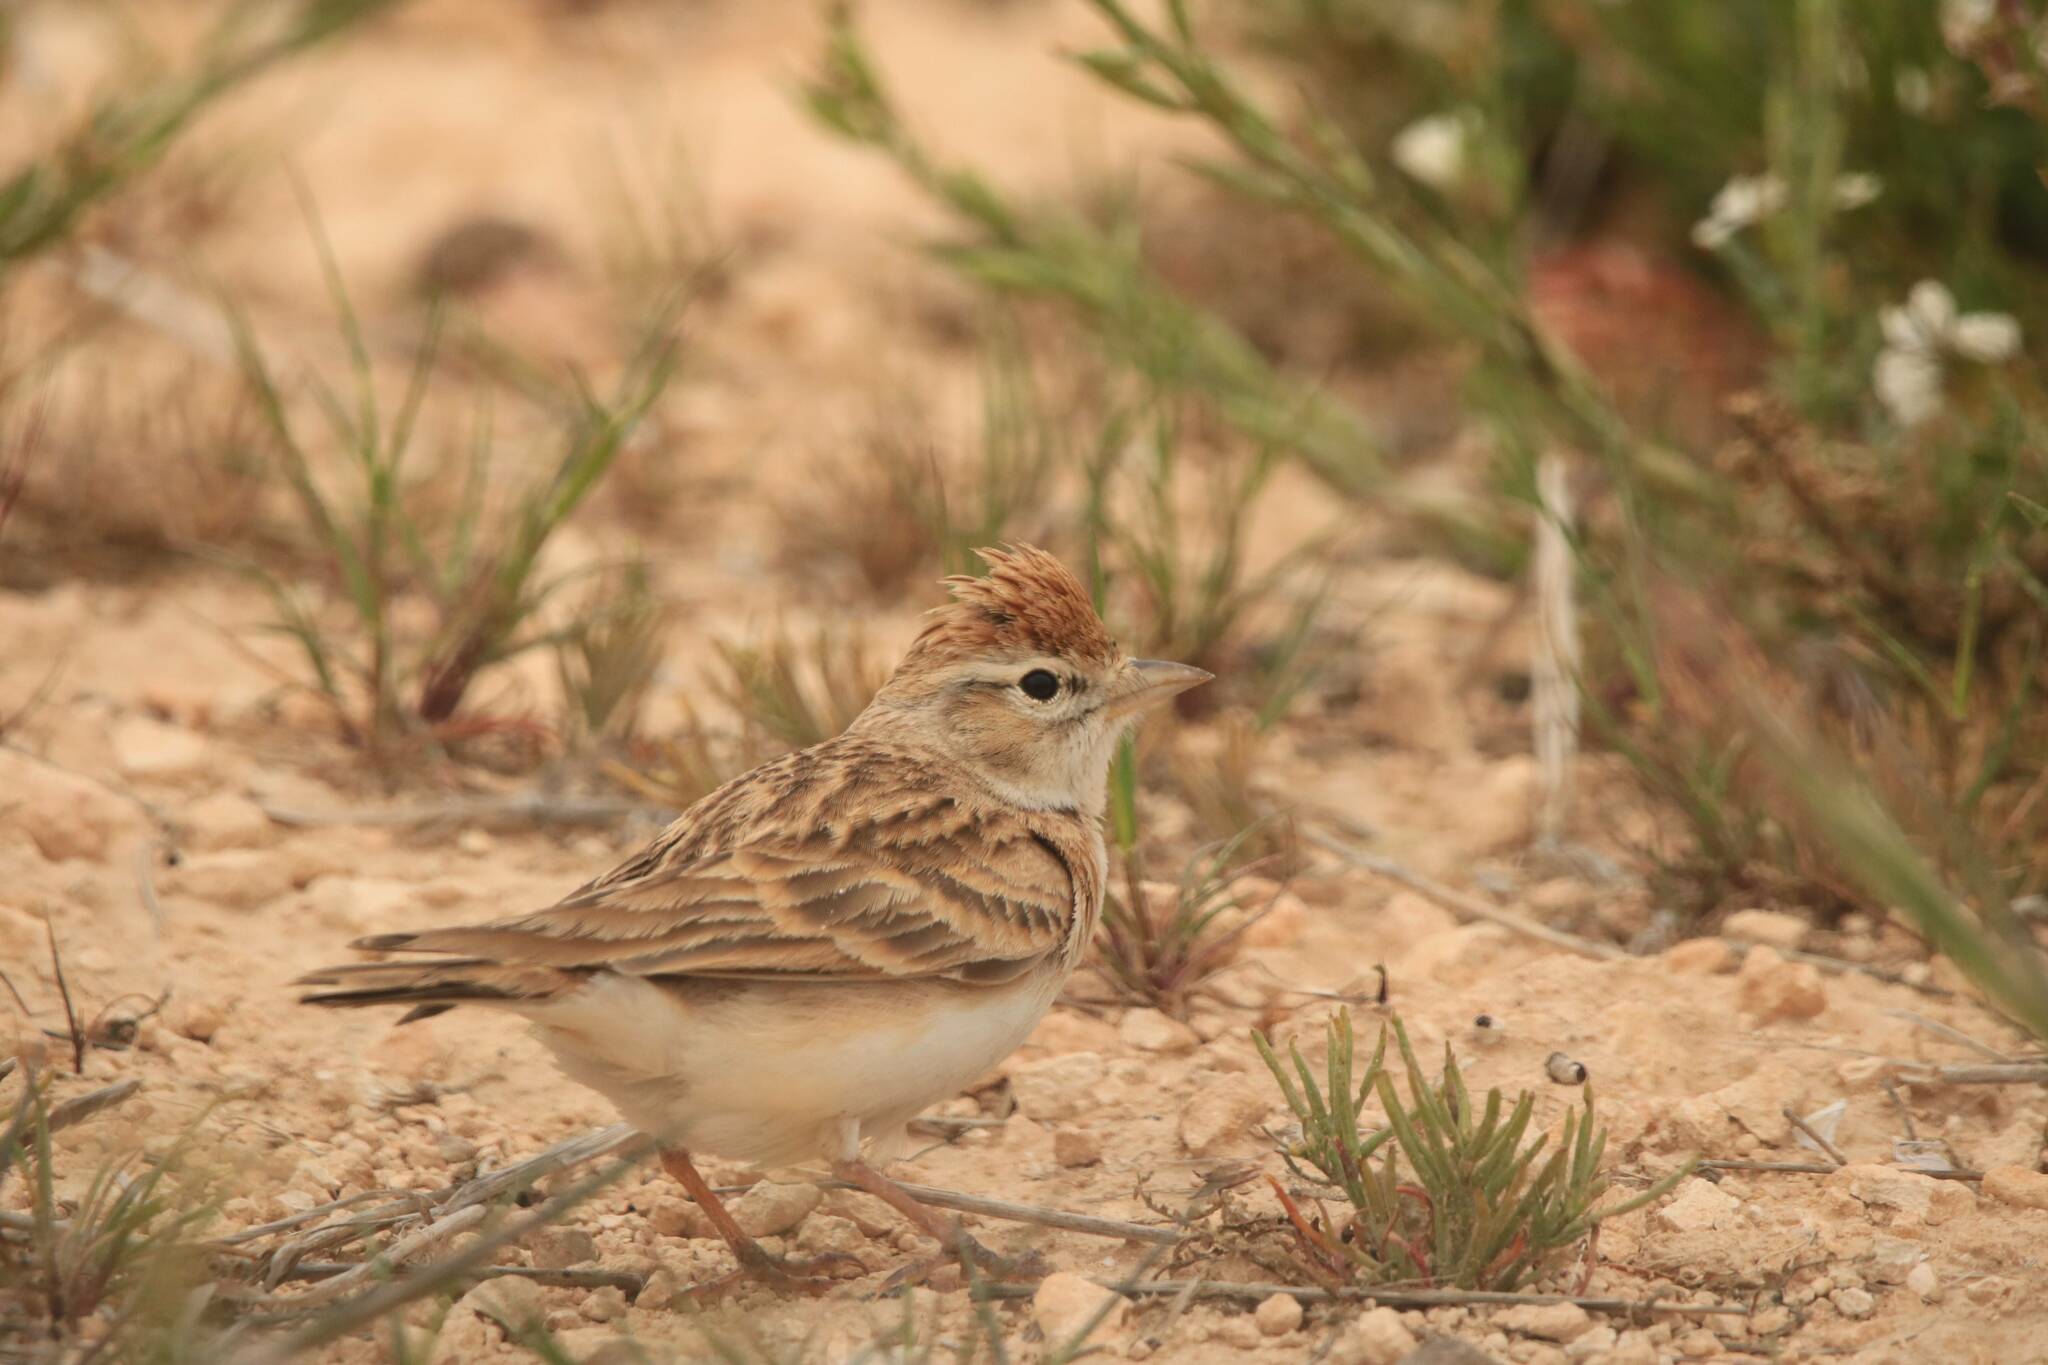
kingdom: Animalia
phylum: Chordata
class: Aves
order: Passeriformes
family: Alaudidae
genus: Calandrella
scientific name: Calandrella brachydactyla
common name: Greater short-toed lark
